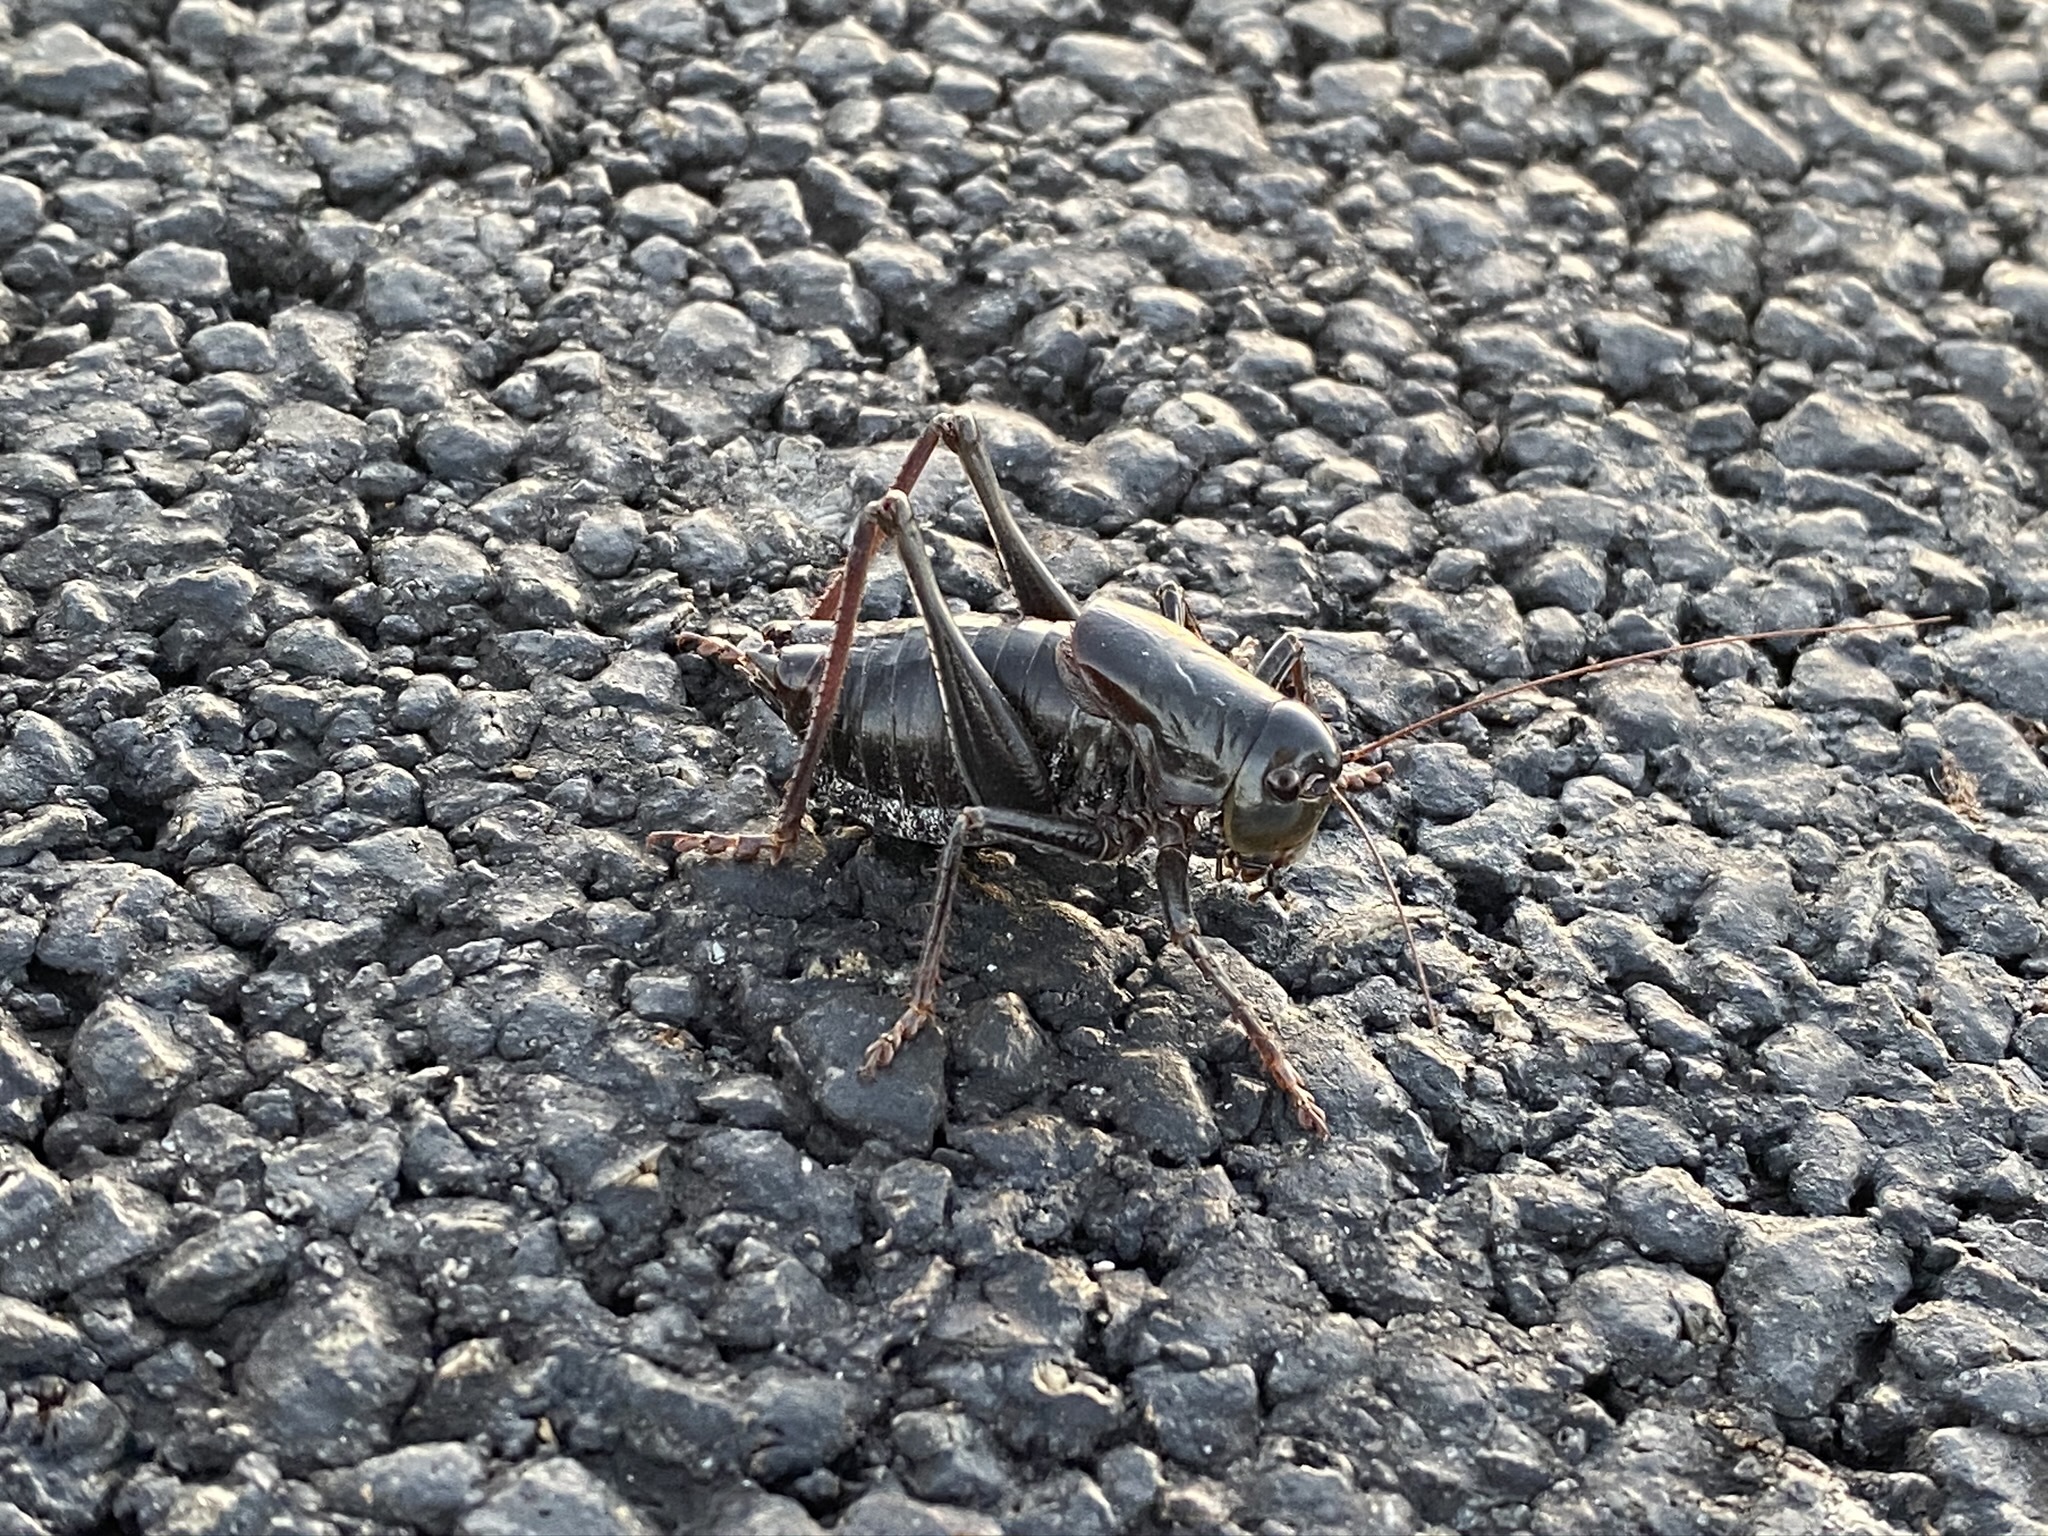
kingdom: Animalia
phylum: Arthropoda
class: Insecta
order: Orthoptera
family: Tettigoniidae
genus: Anabrus
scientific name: Anabrus simplex
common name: Mormon cricket
